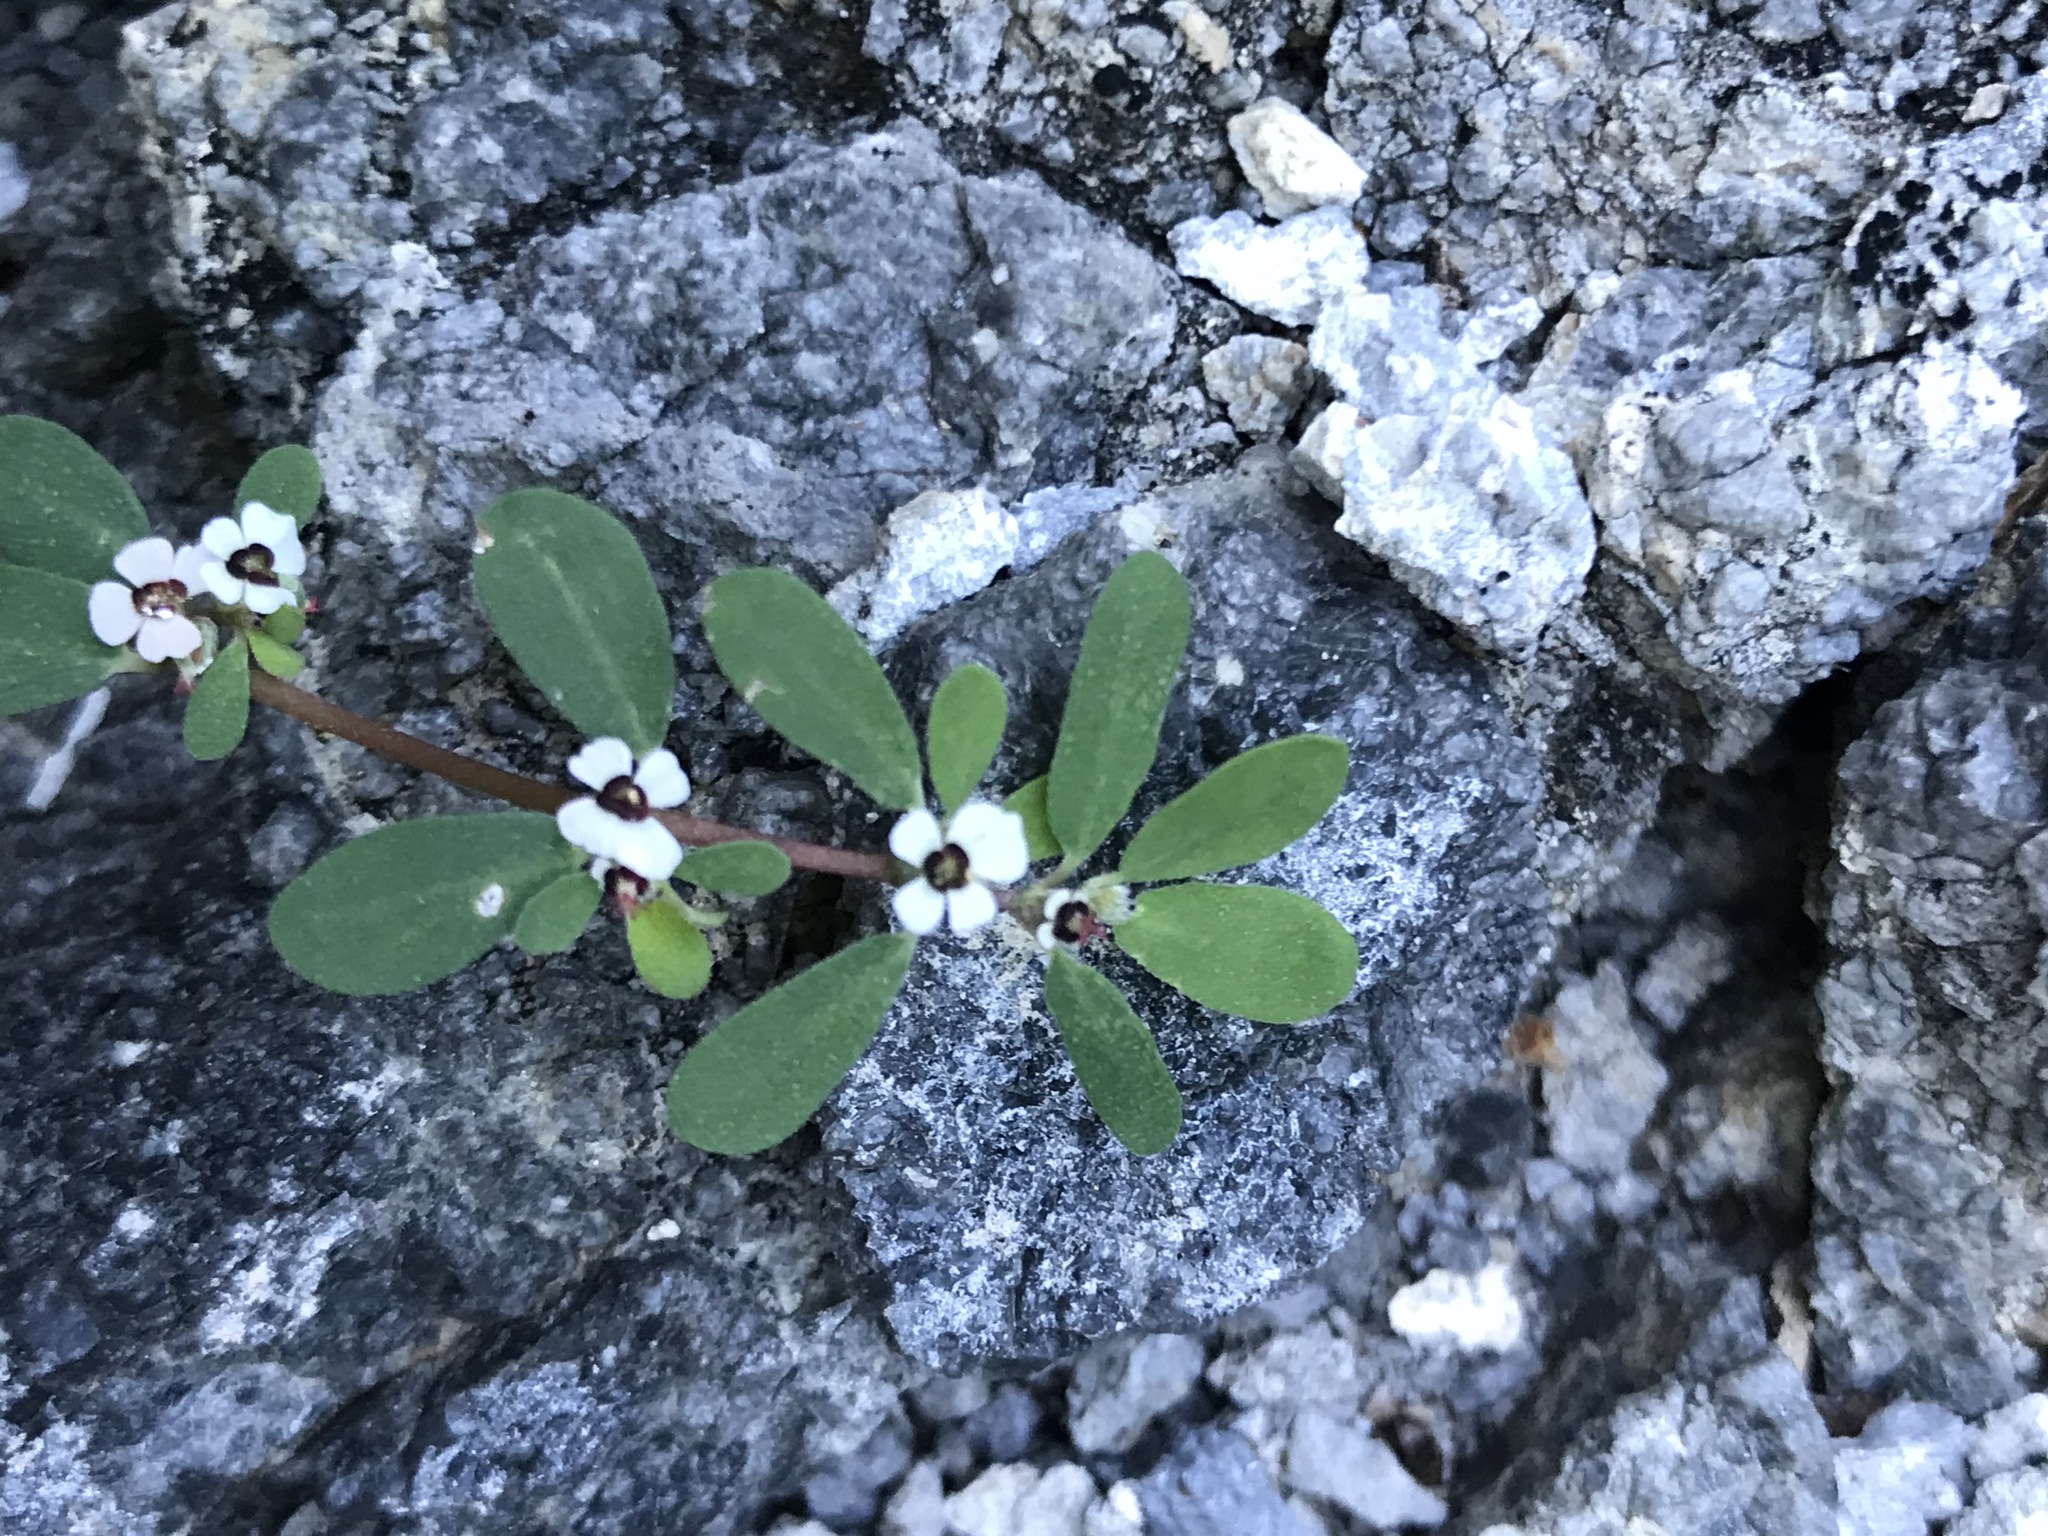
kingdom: Plantae
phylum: Tracheophyta
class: Magnoliopsida
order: Malpighiales
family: Euphorbiaceae
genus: Euphorbia
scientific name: Euphorbia pediculifera
